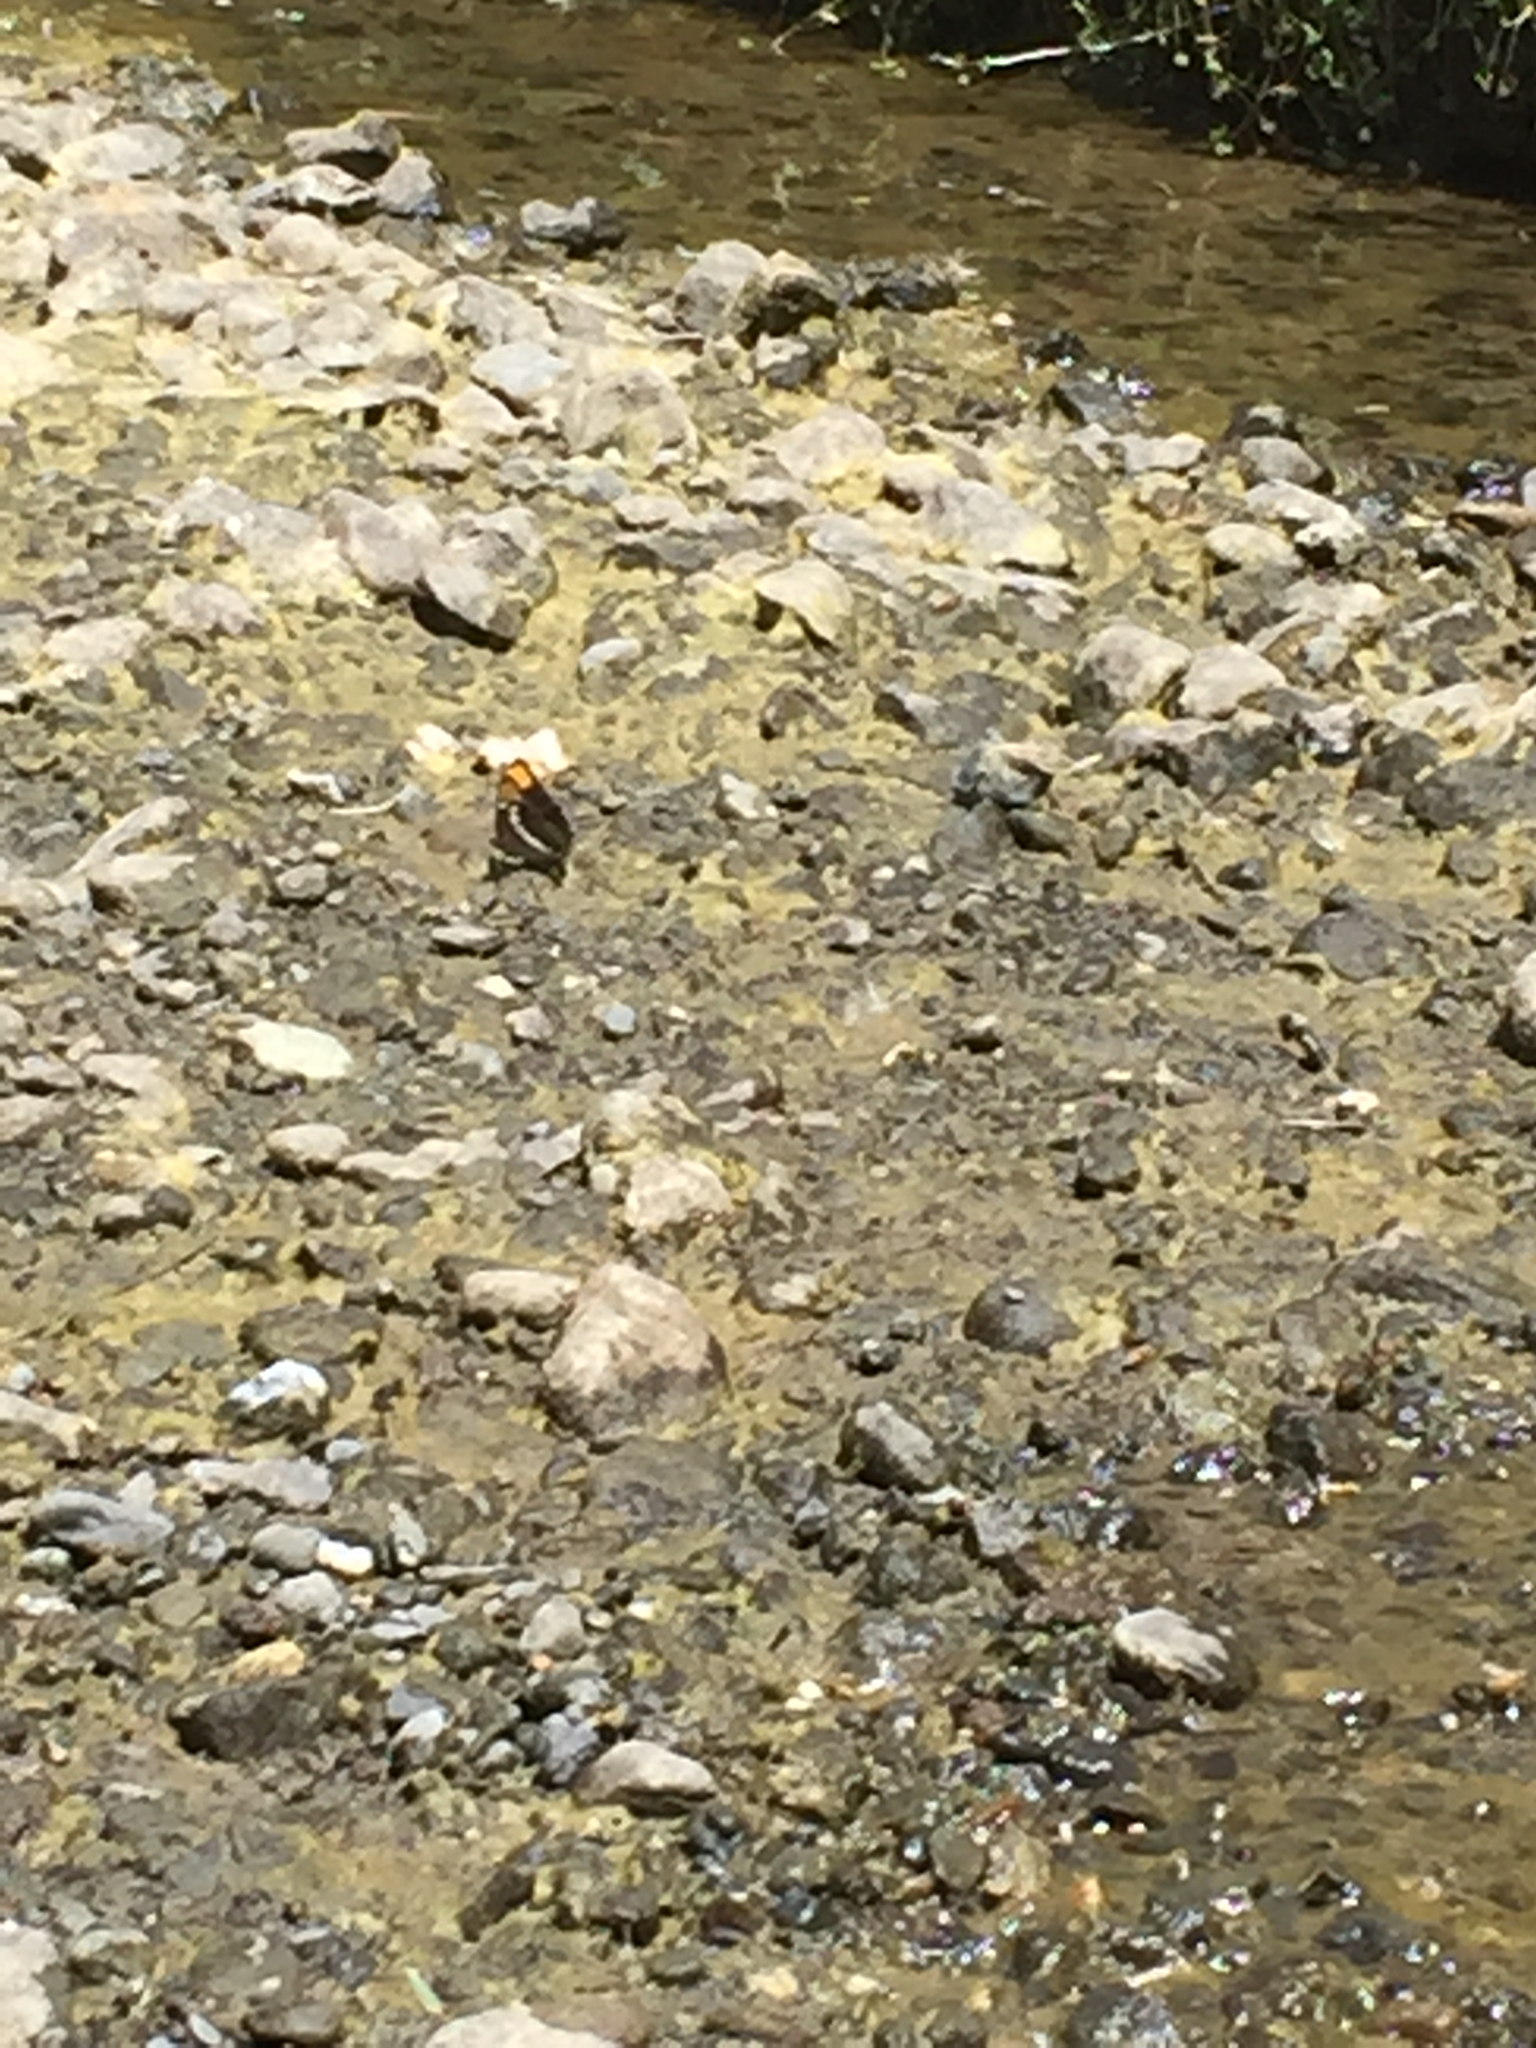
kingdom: Animalia
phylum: Arthropoda
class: Insecta
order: Lepidoptera
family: Nymphalidae
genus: Limenitis
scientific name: Limenitis bredowii
